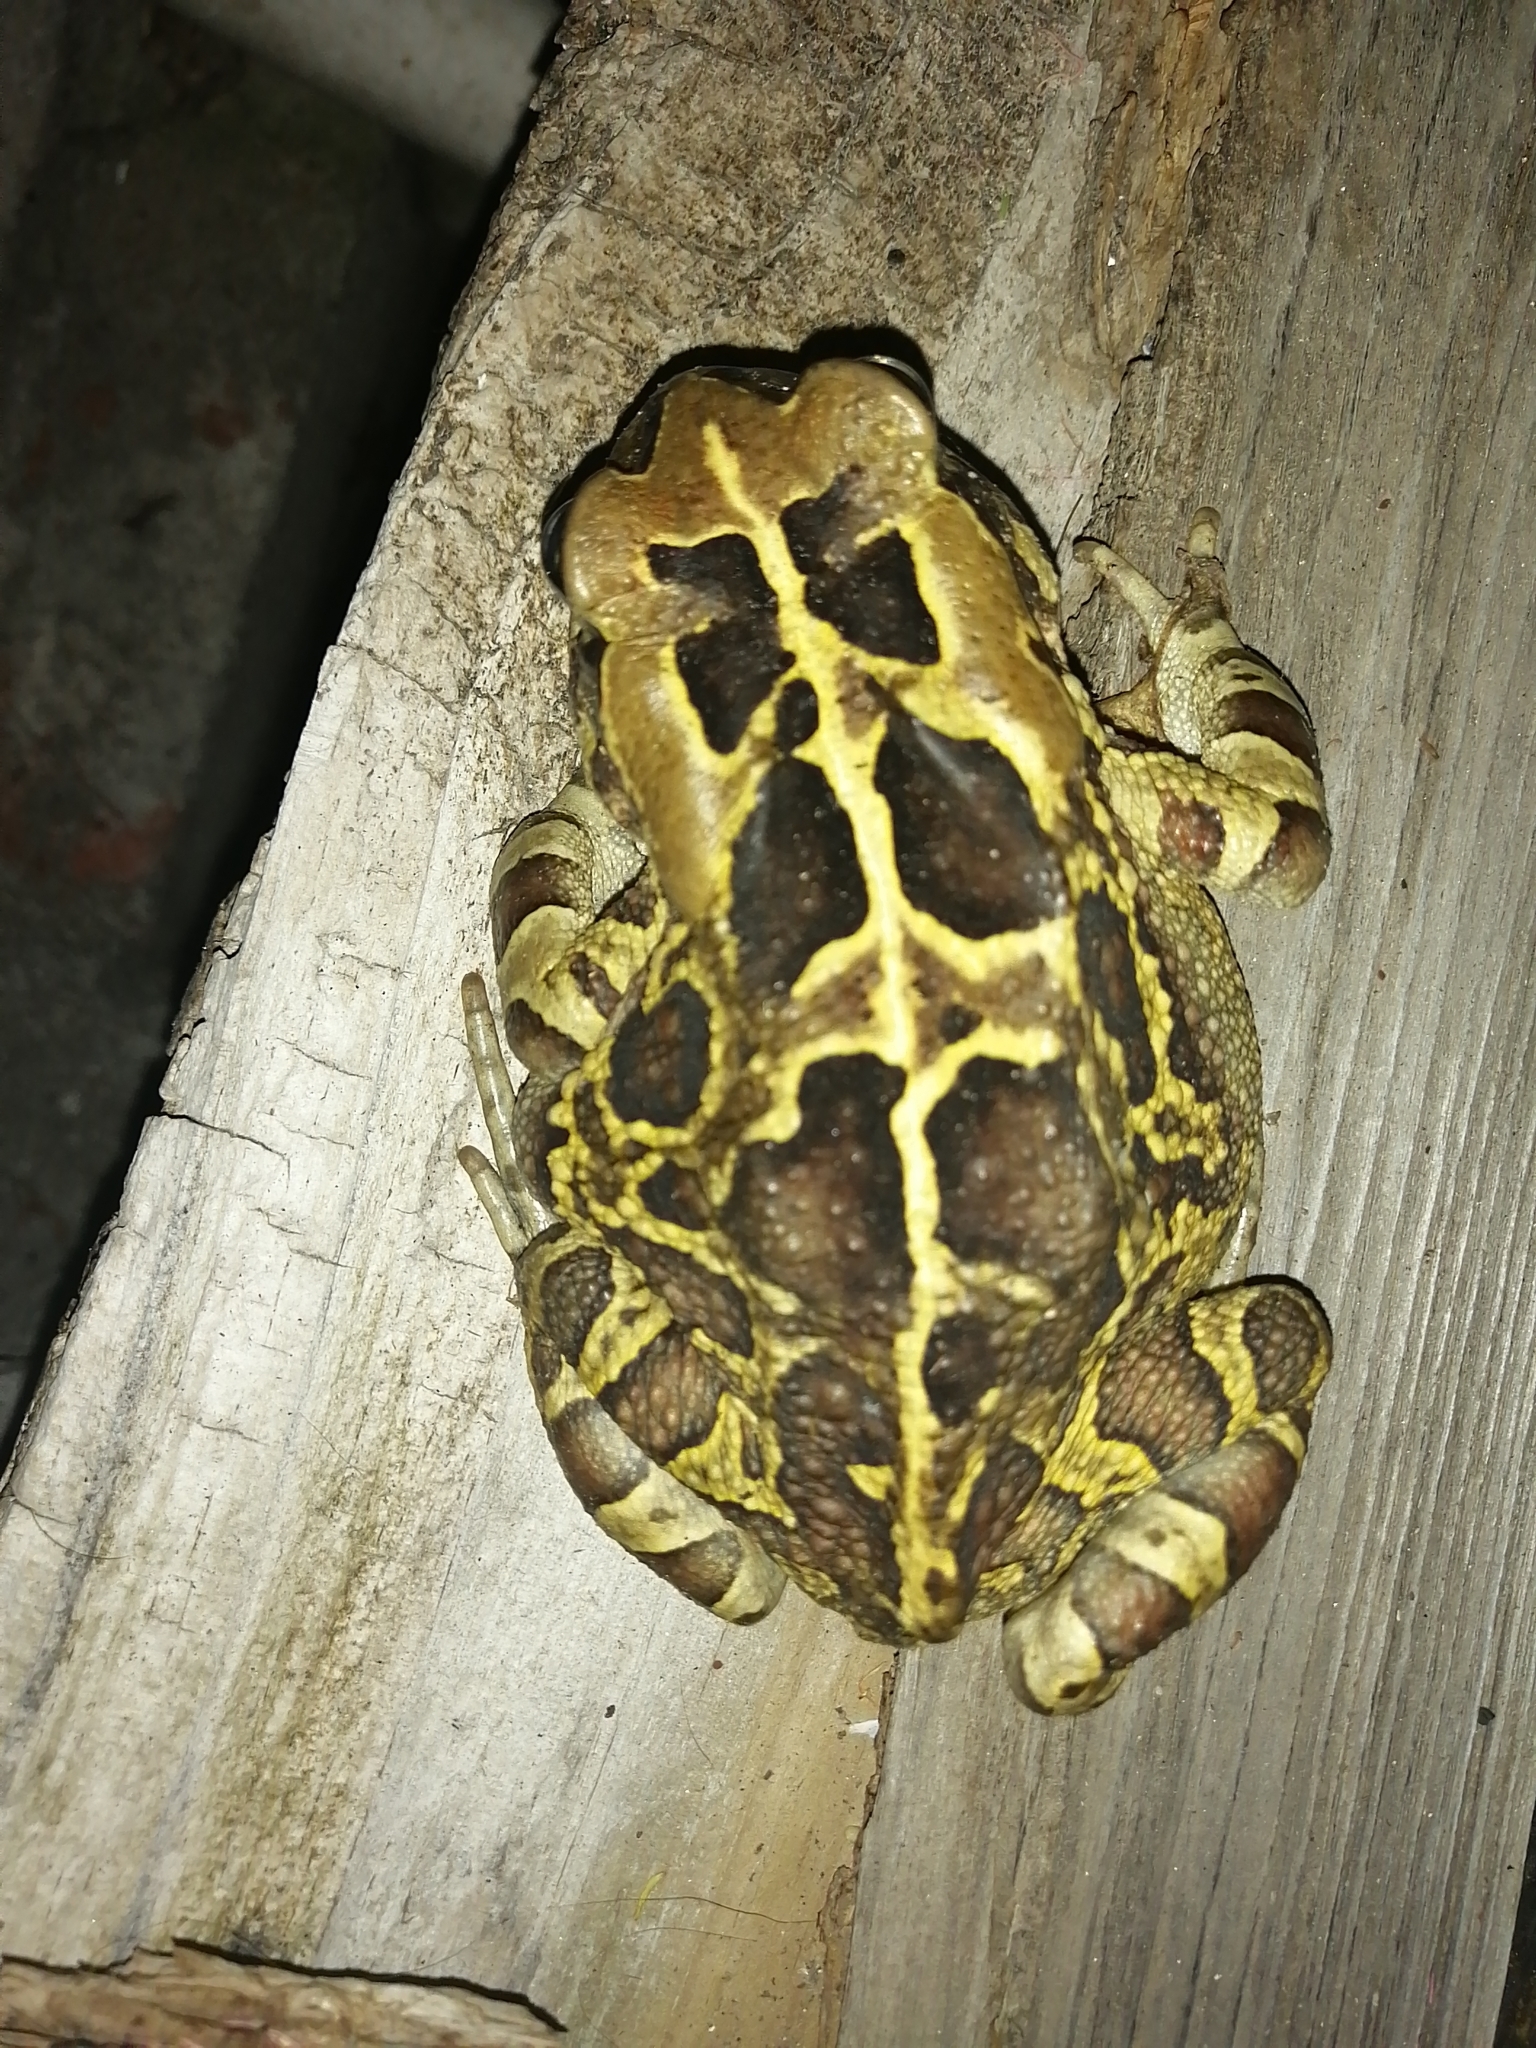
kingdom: Animalia
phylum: Chordata
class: Amphibia
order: Anura
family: Bufonidae
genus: Sclerophrys
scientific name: Sclerophrys pantherina
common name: Panther toad
